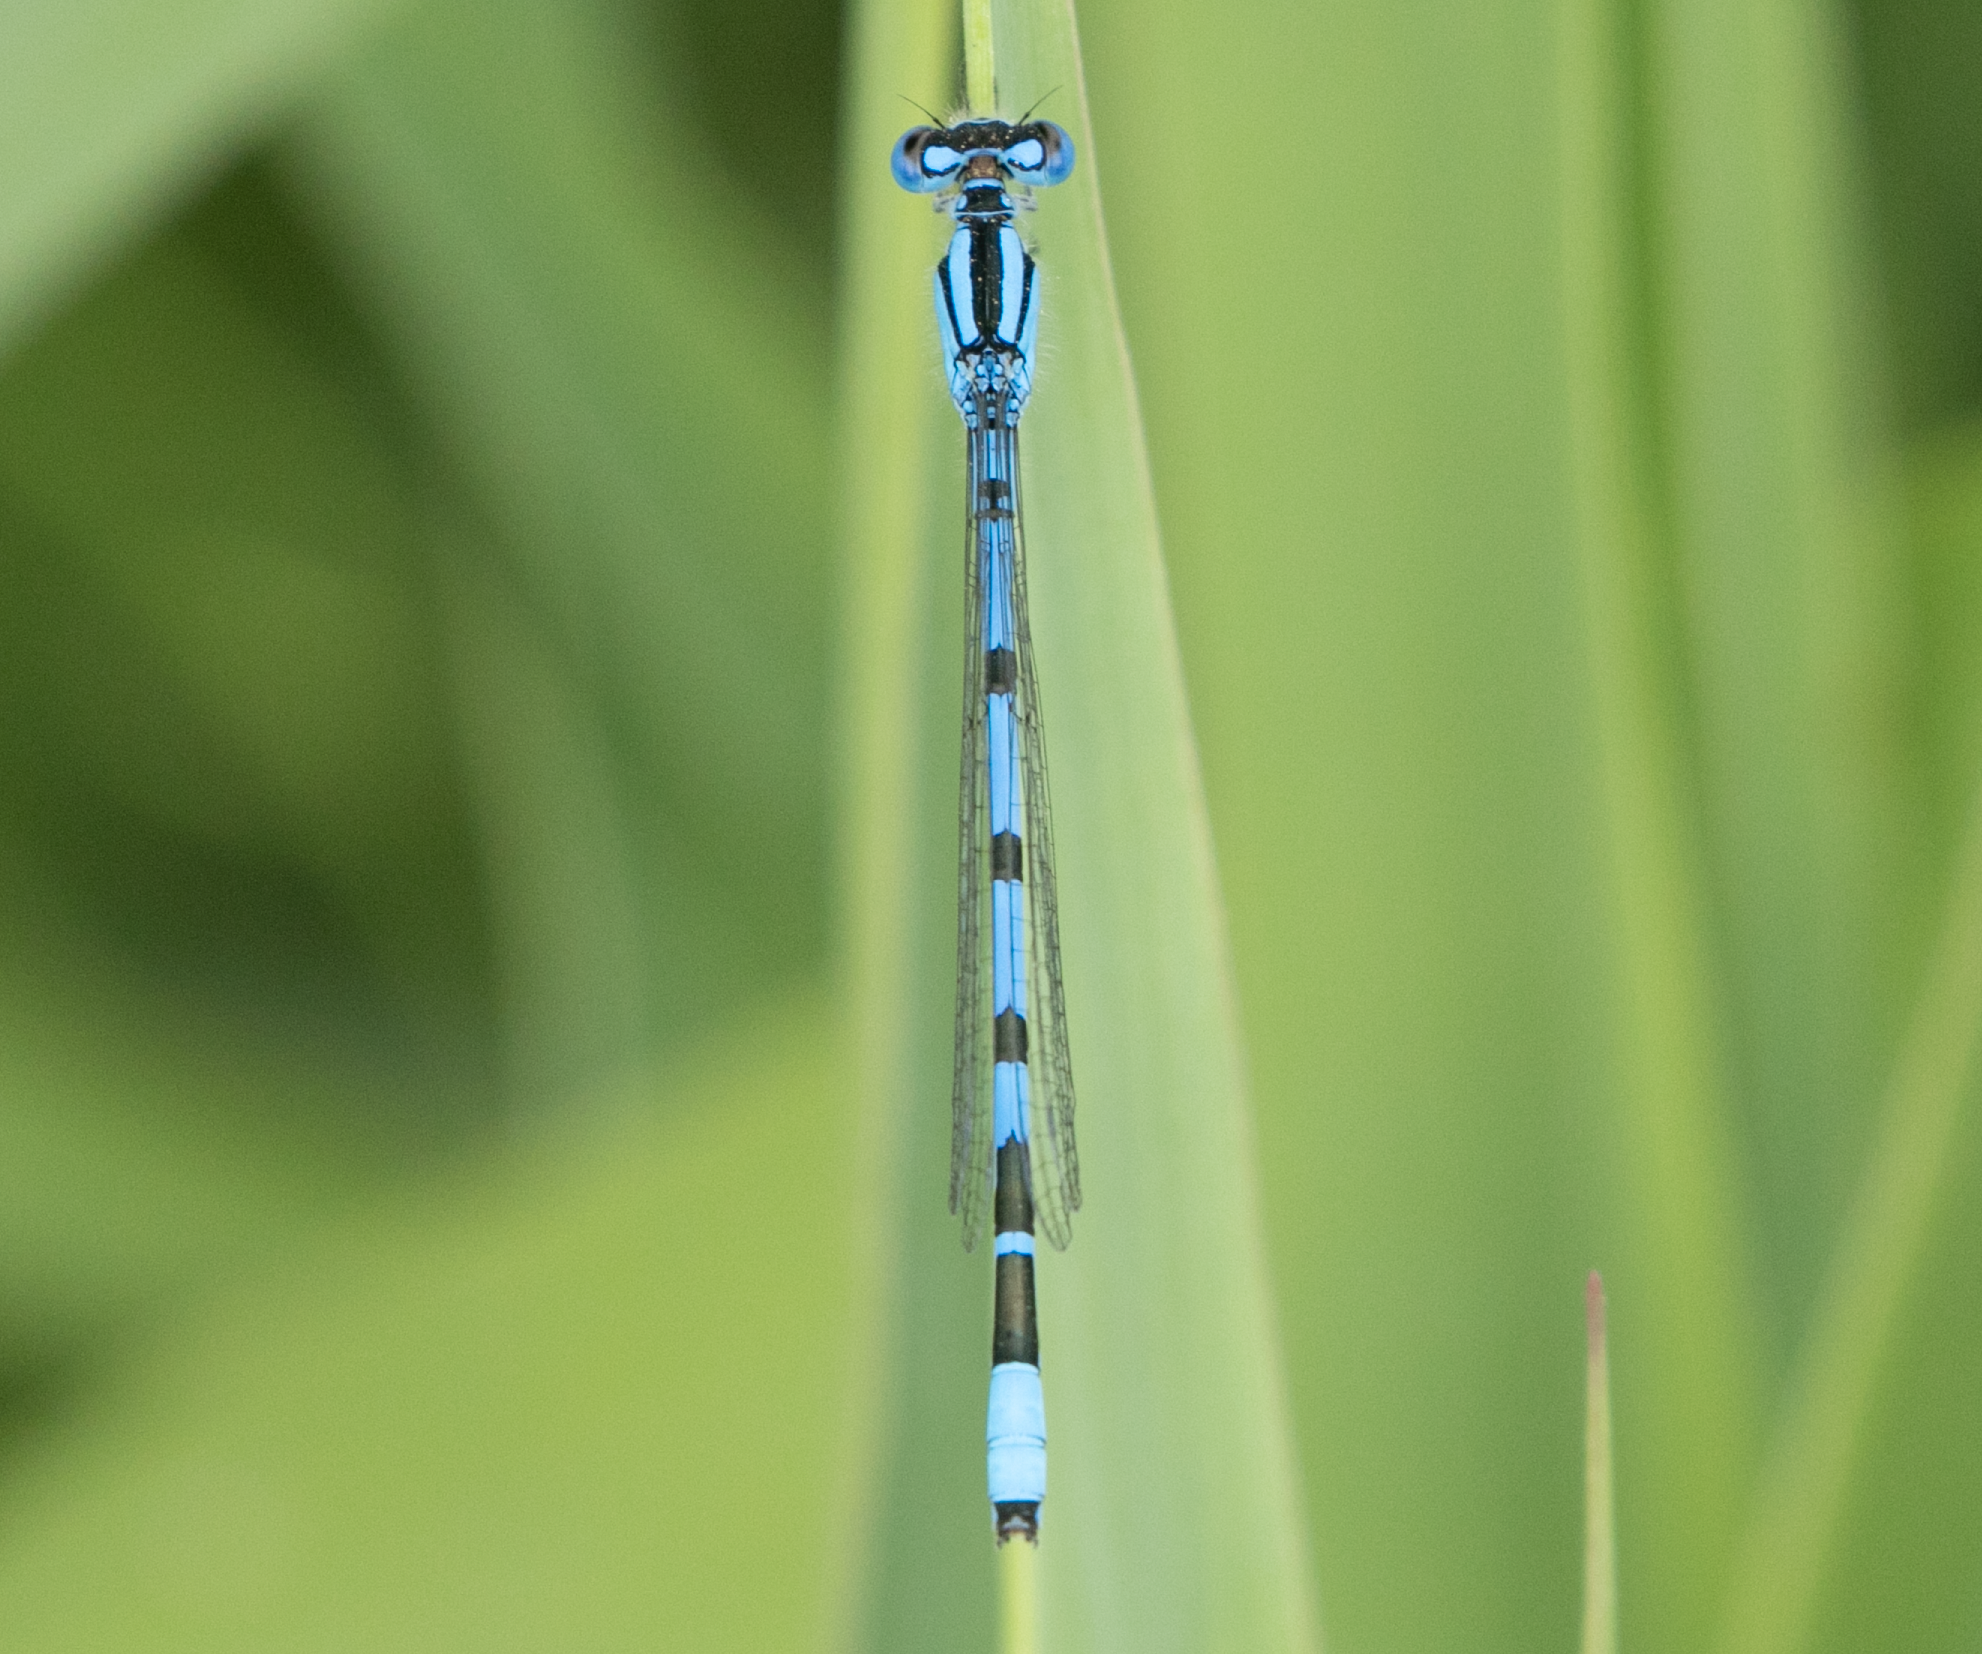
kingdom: Animalia
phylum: Arthropoda
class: Insecta
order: Odonata
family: Coenagrionidae
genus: Enallagma
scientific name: Enallagma cyathigerum
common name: Common blue damselfly
